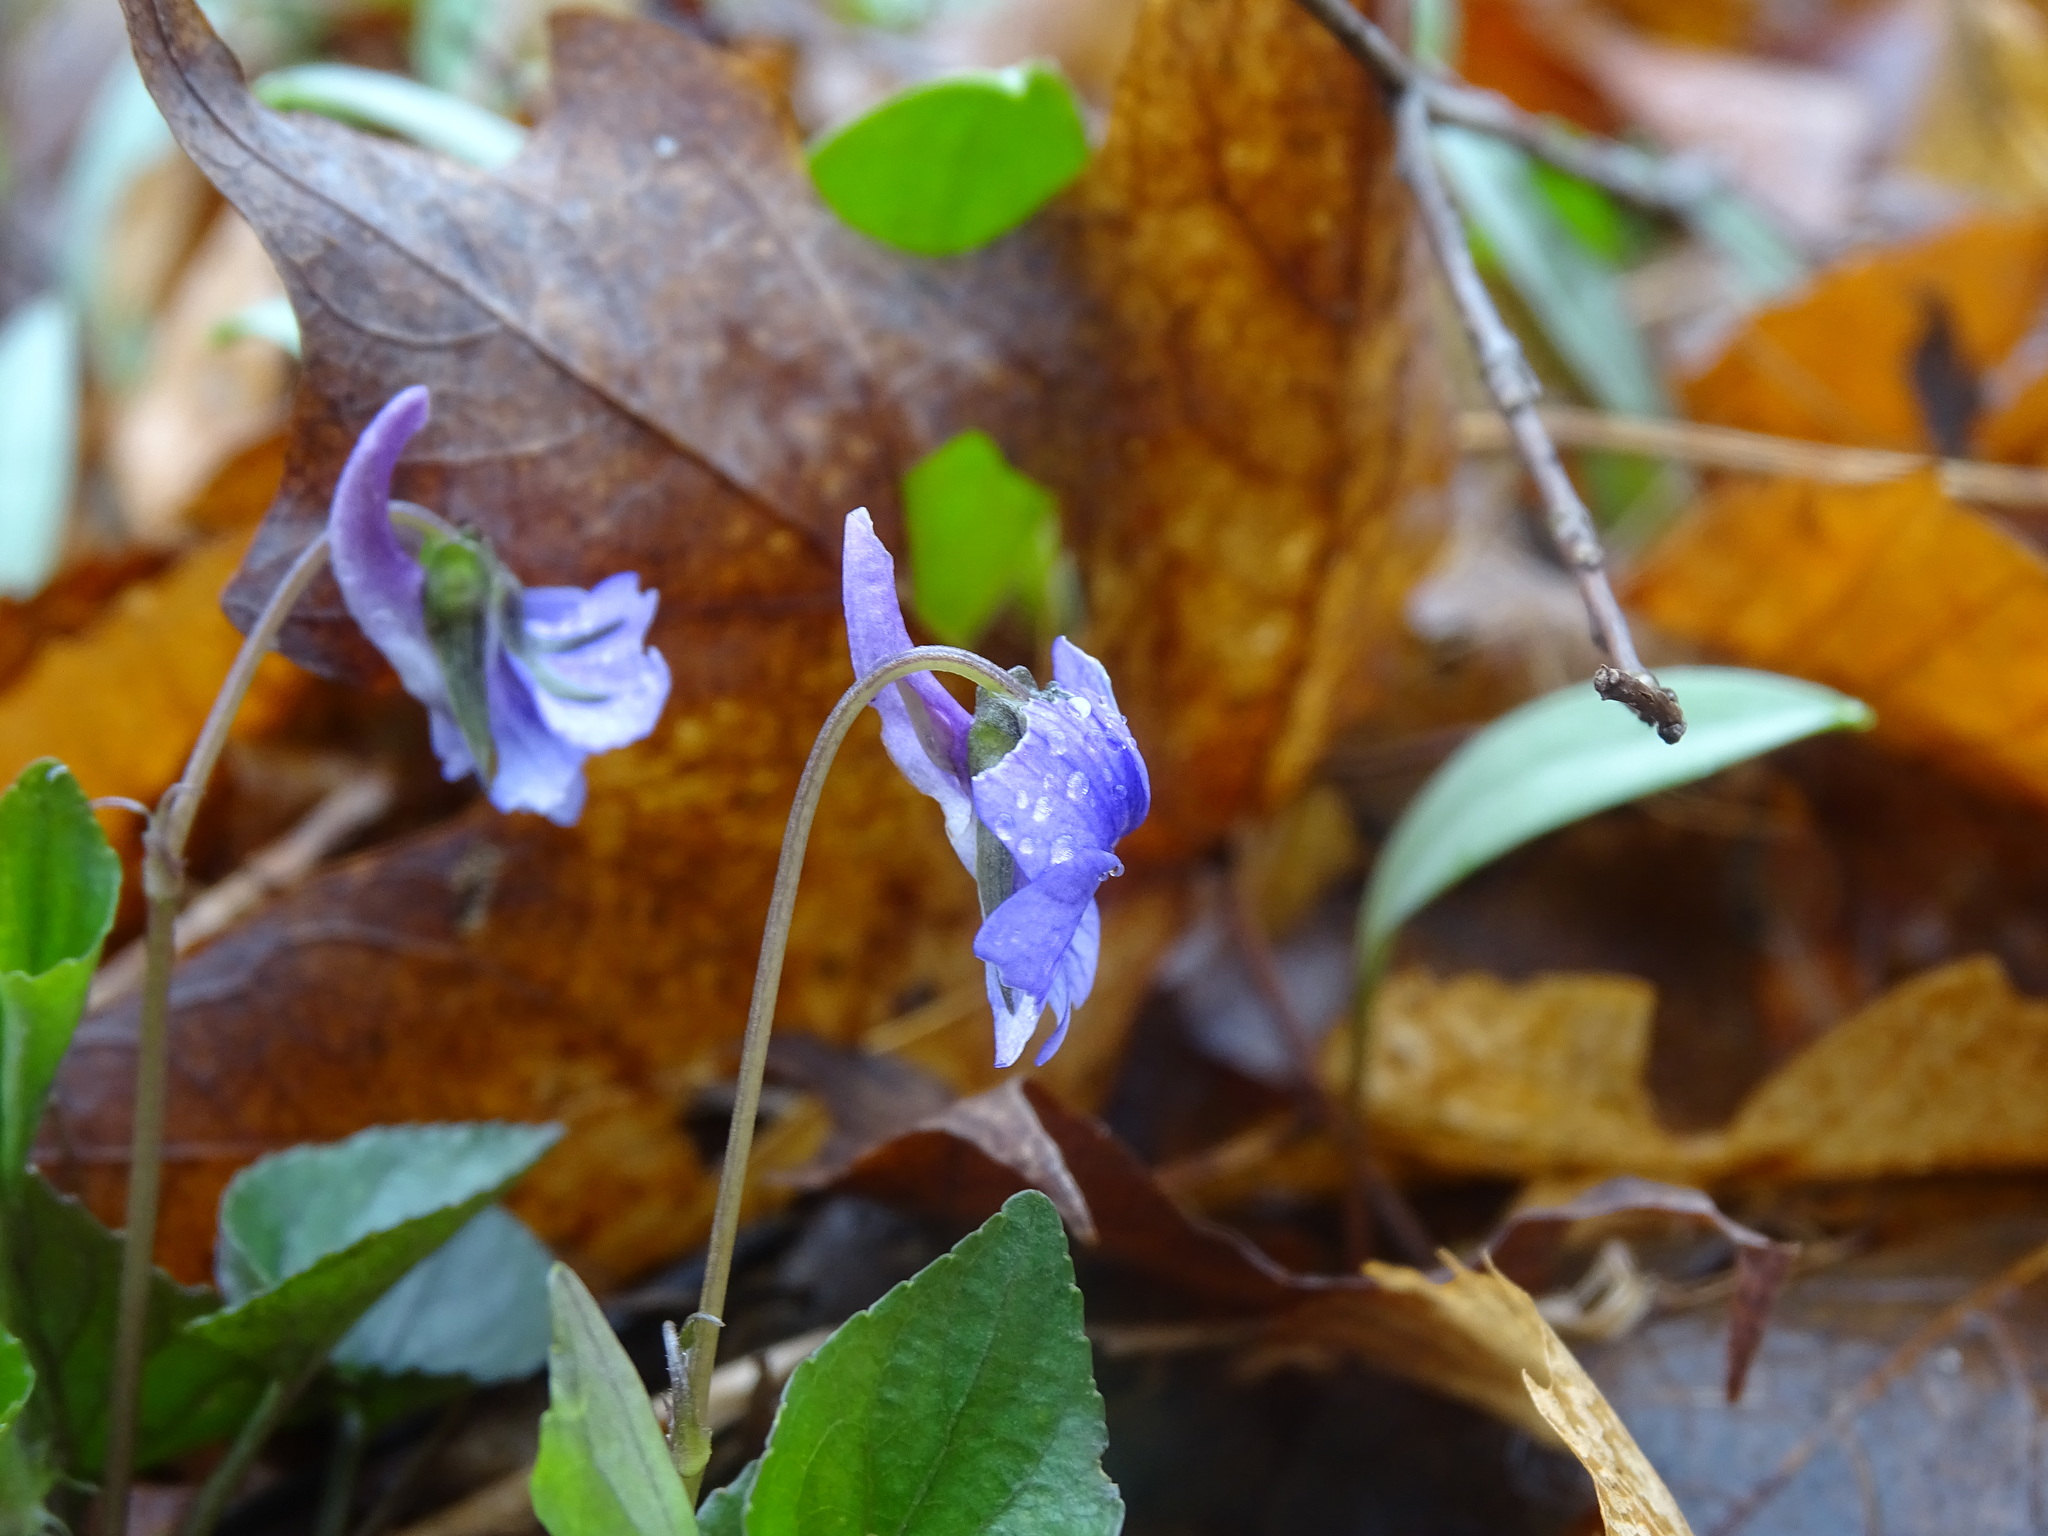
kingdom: Plantae
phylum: Tracheophyta
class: Magnoliopsida
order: Malpighiales
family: Violaceae
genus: Viola
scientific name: Viola rostrata
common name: Long-spur violet
